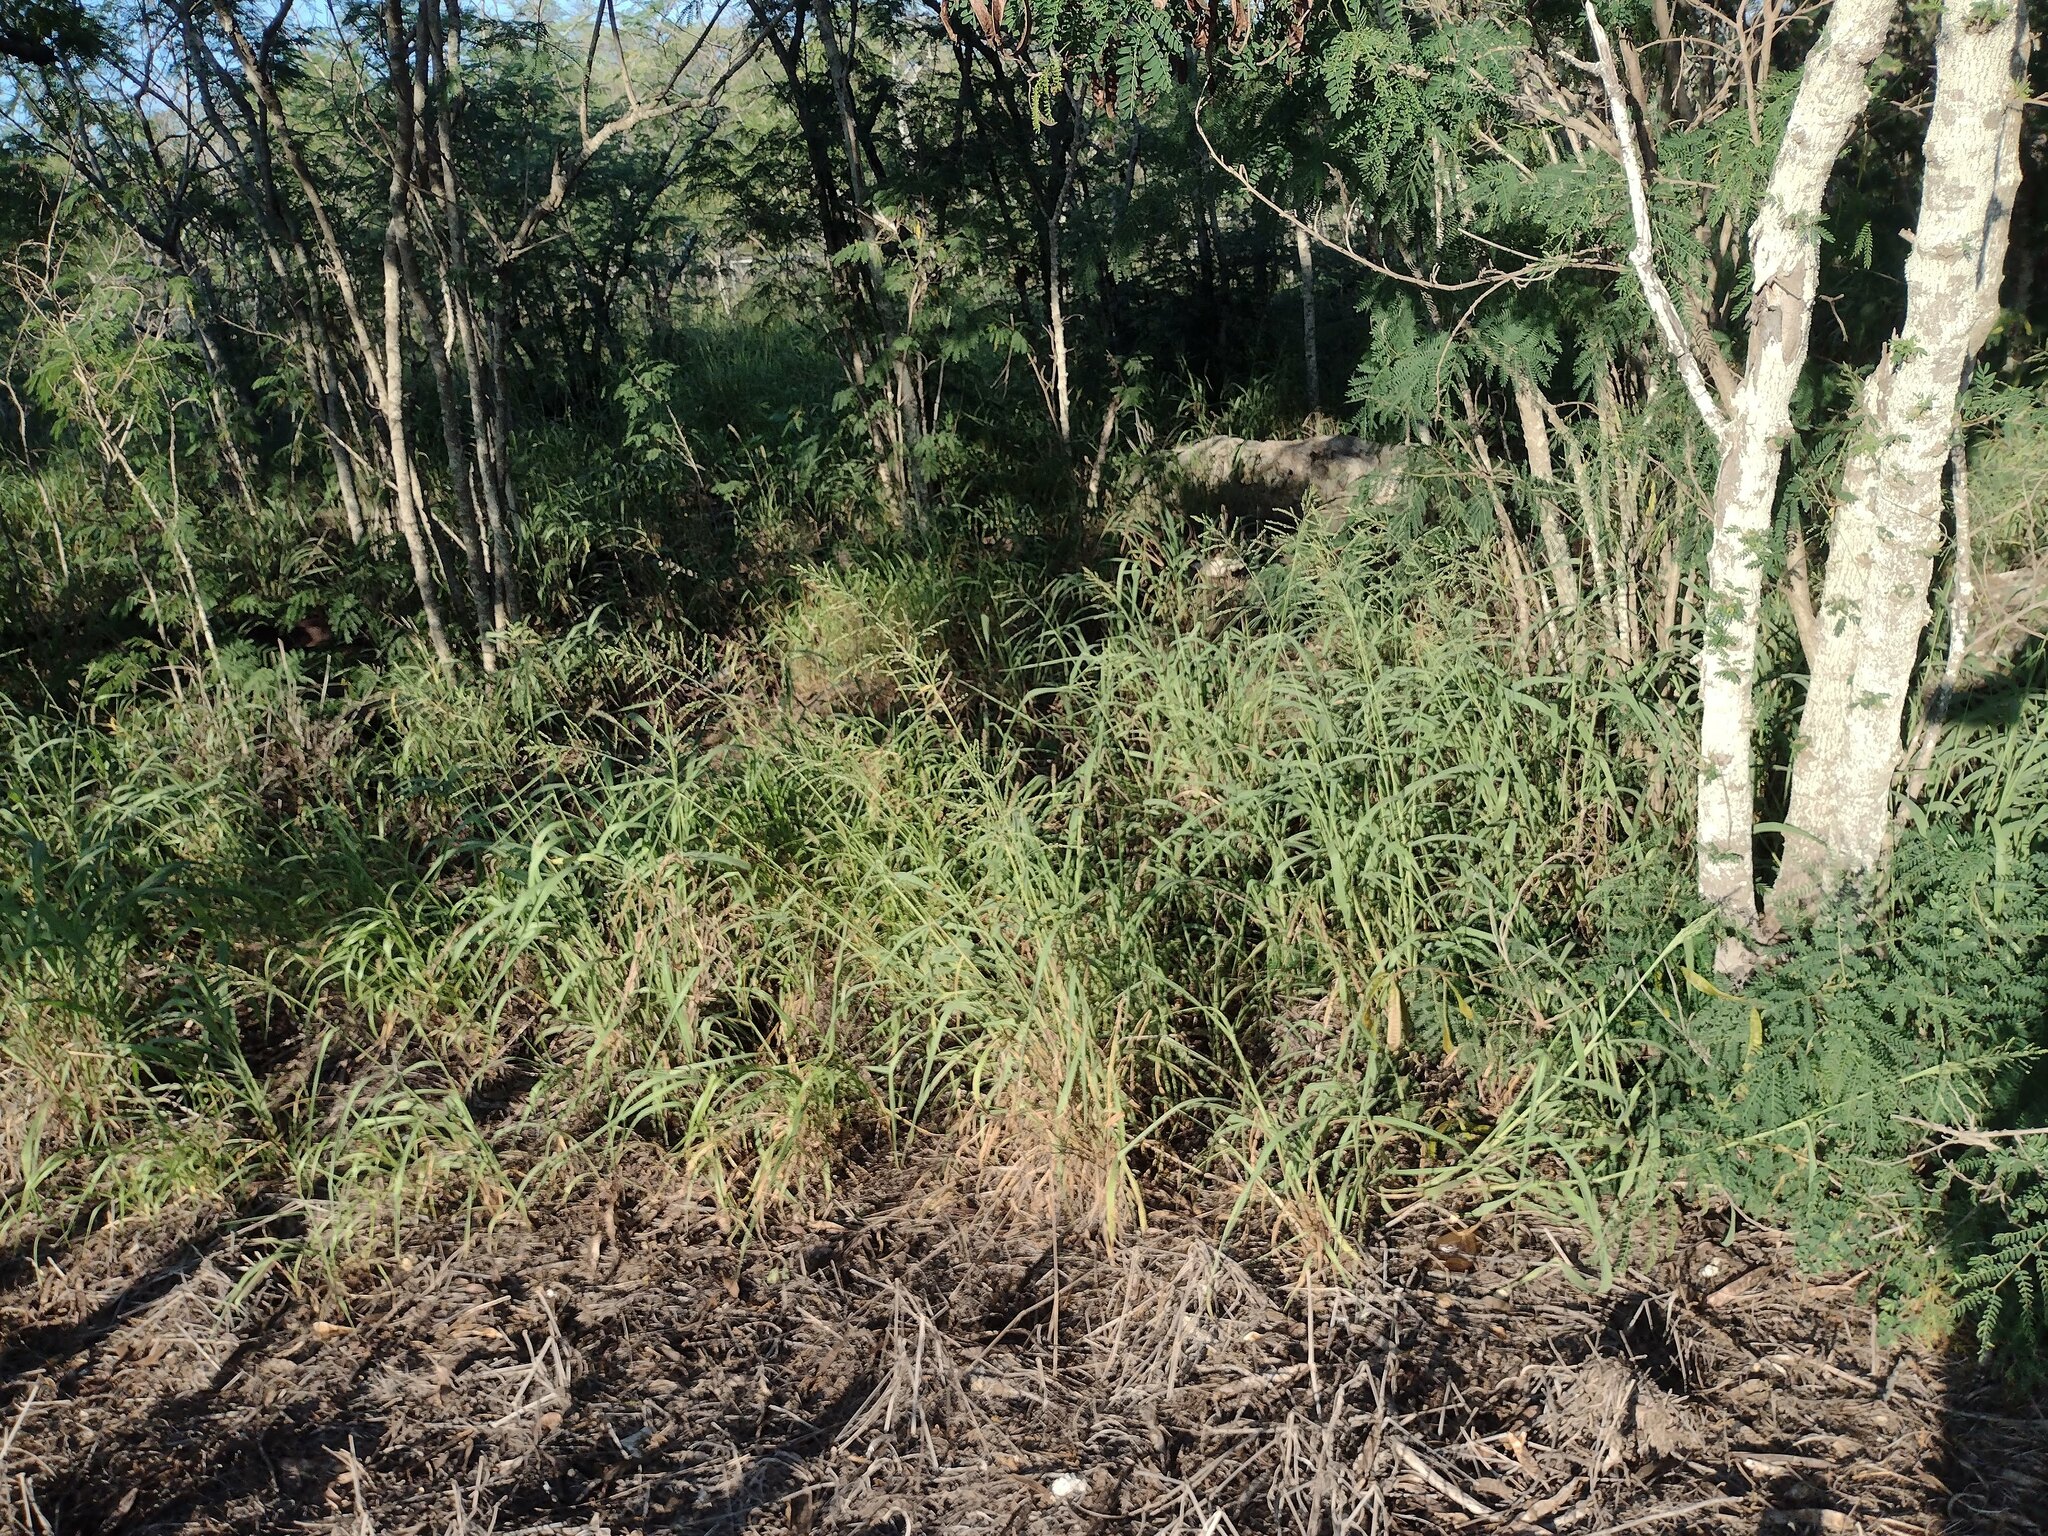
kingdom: Plantae
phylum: Tracheophyta
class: Liliopsida
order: Poales
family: Poaceae
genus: Megathyrsus
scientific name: Megathyrsus maximus
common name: Guineagrass
